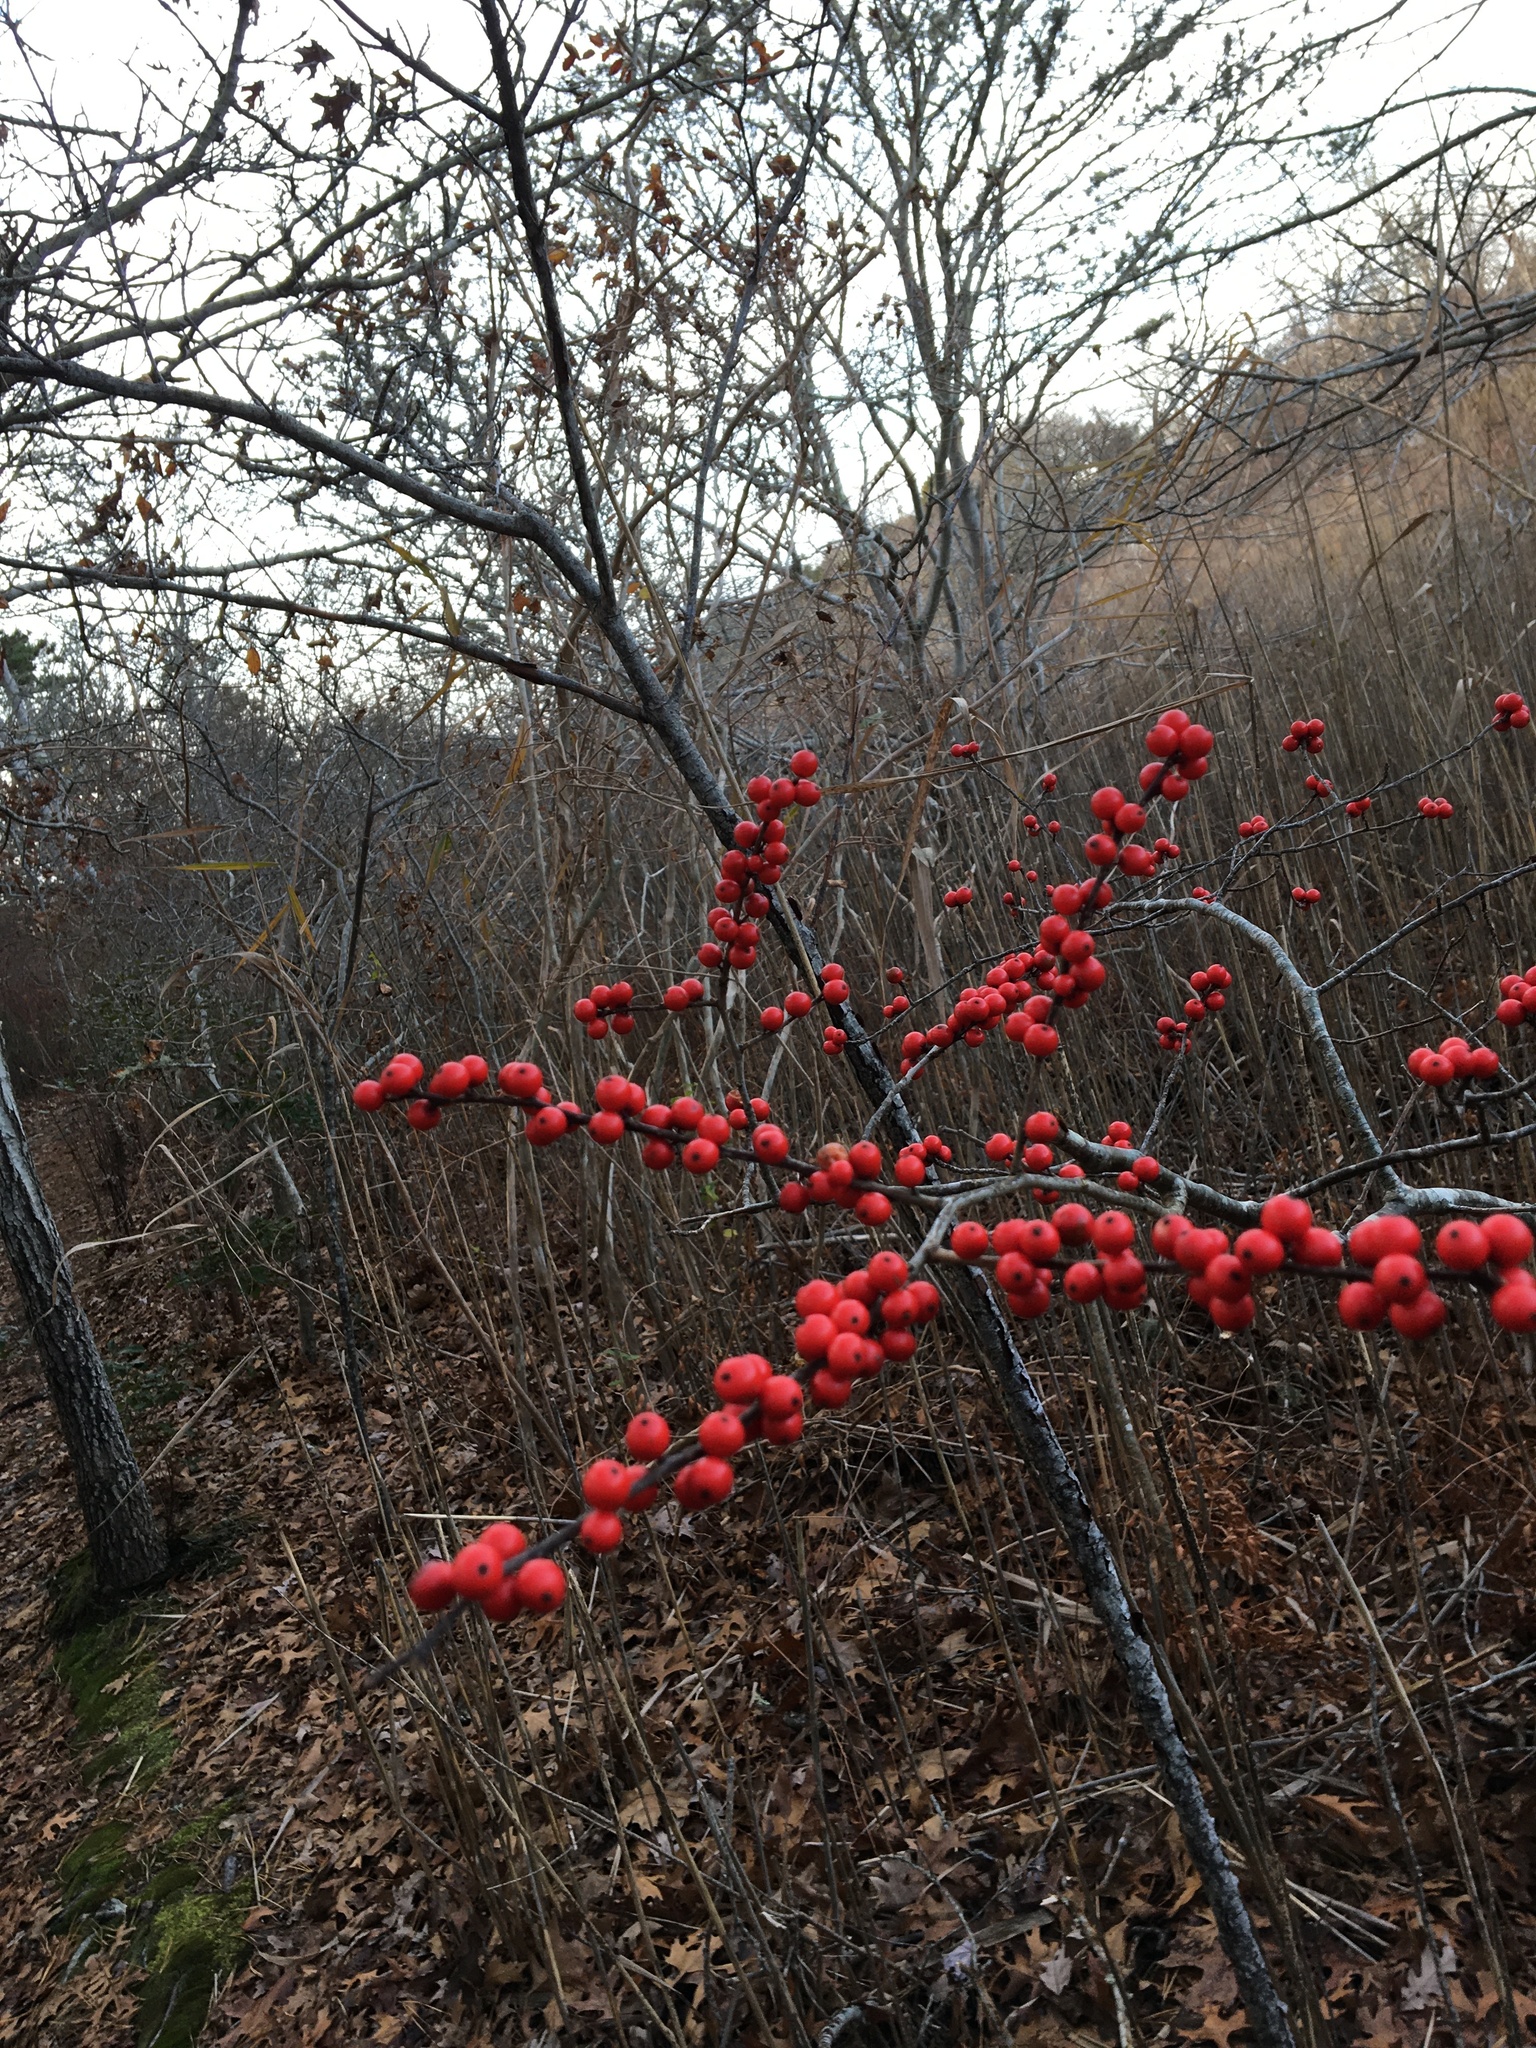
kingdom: Plantae
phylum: Tracheophyta
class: Magnoliopsida
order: Aquifoliales
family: Aquifoliaceae
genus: Ilex
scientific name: Ilex verticillata
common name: Virginia winterberry
